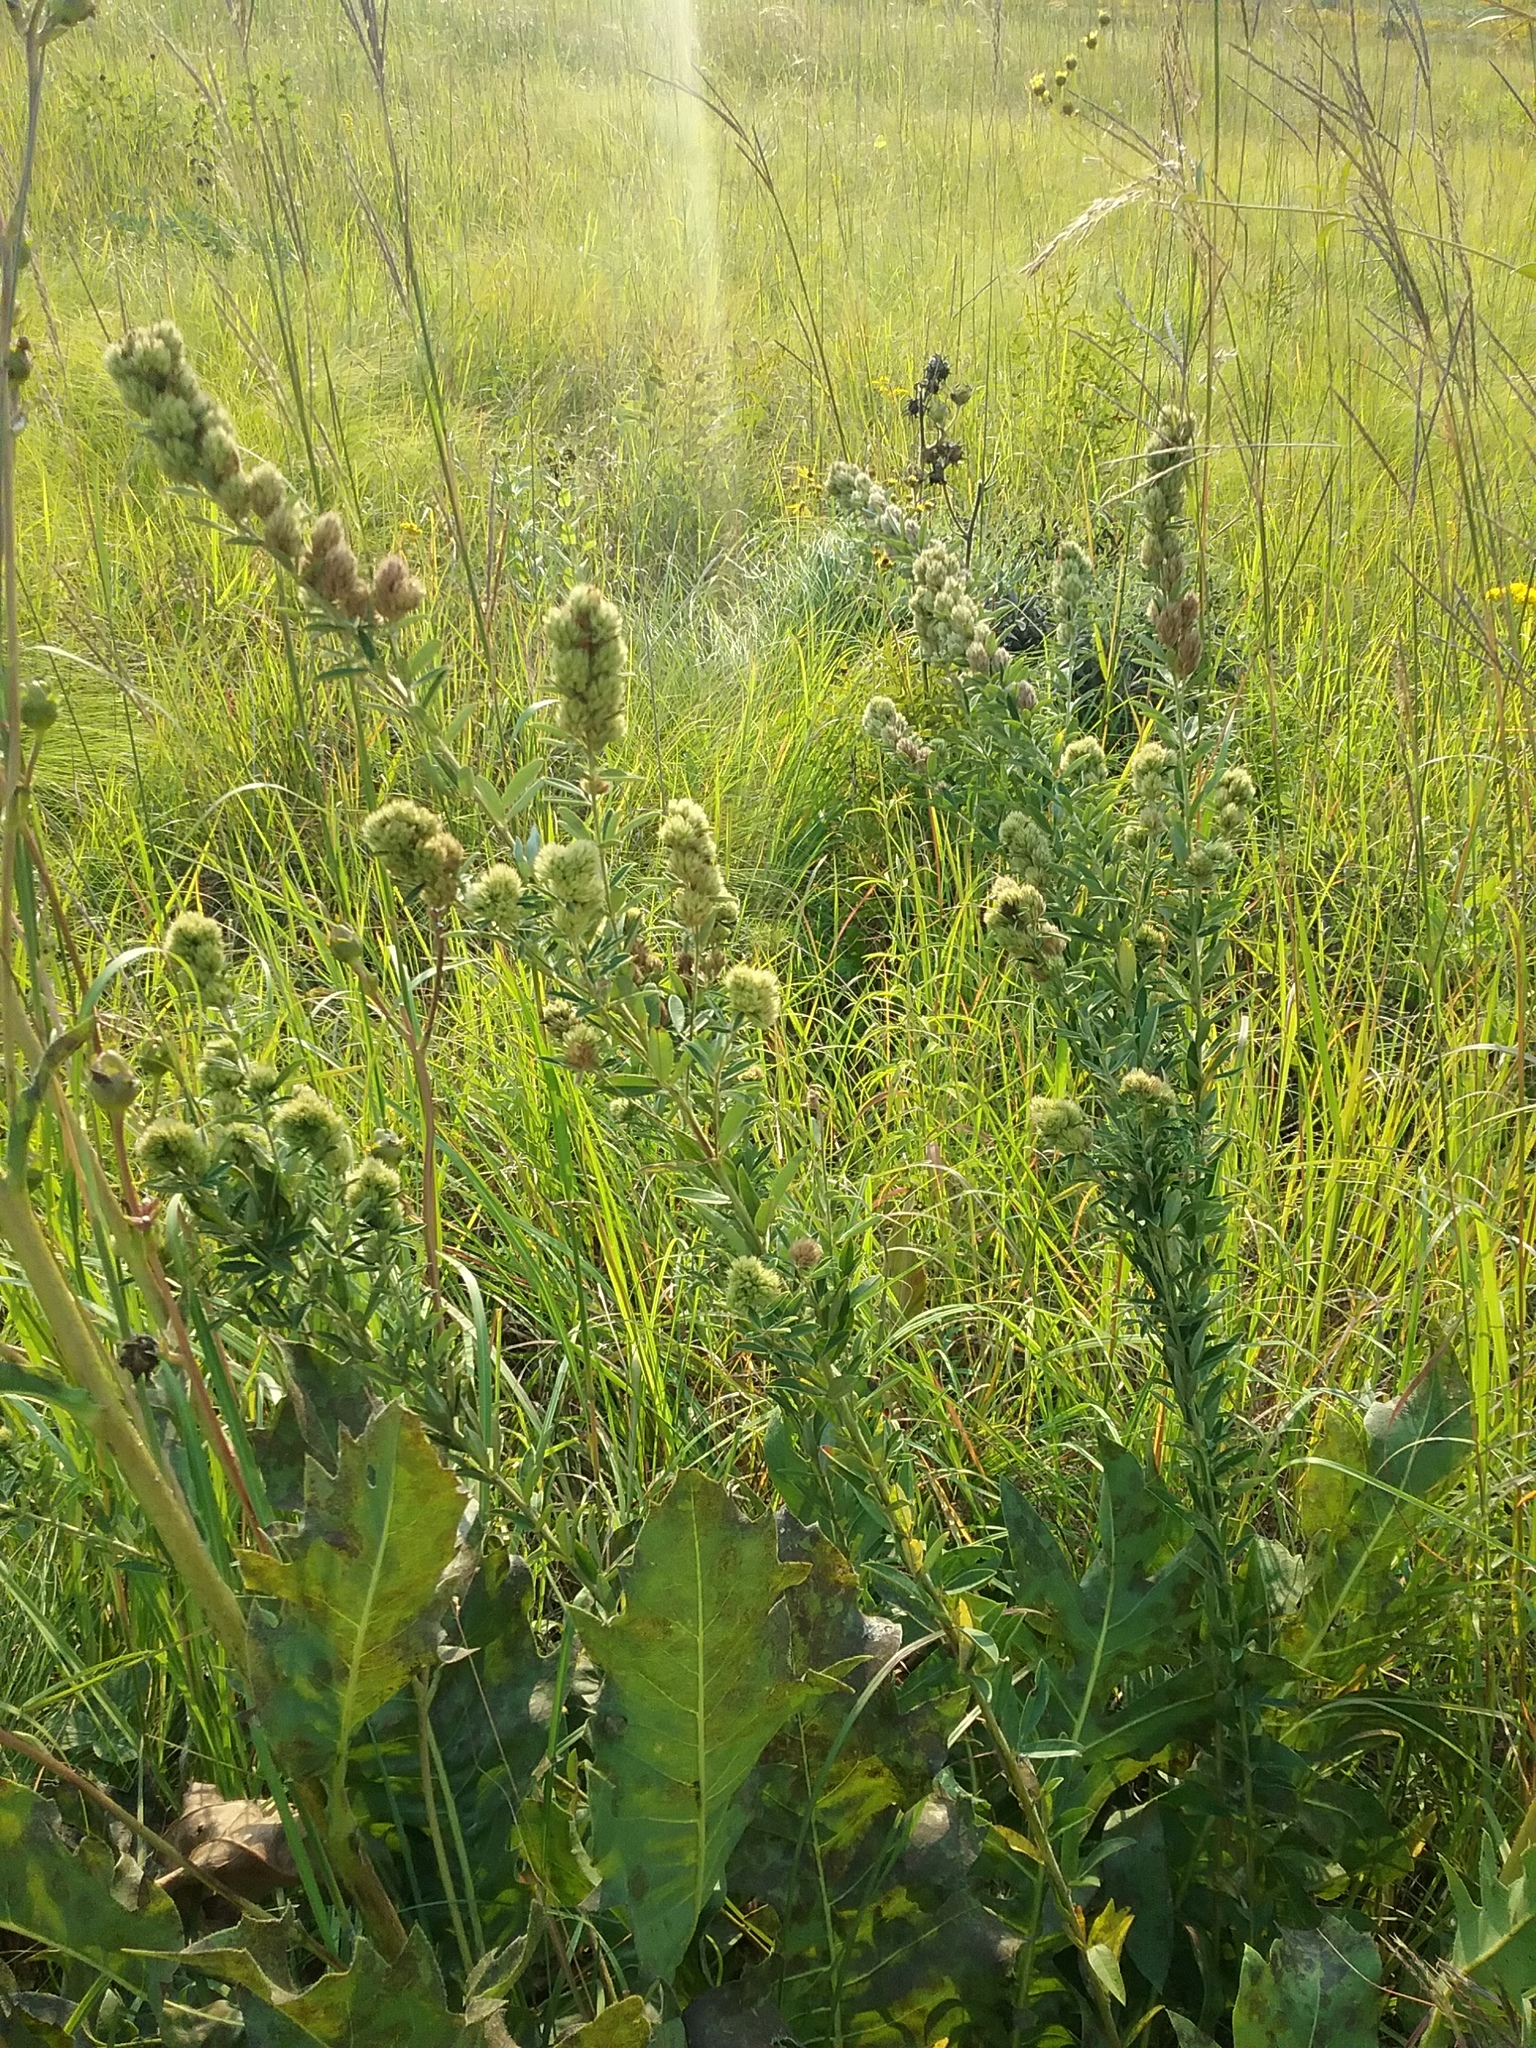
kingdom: Plantae
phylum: Tracheophyta
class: Magnoliopsida
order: Fabales
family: Fabaceae
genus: Lespedeza
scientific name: Lespedeza capitata
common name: Dusty clover
